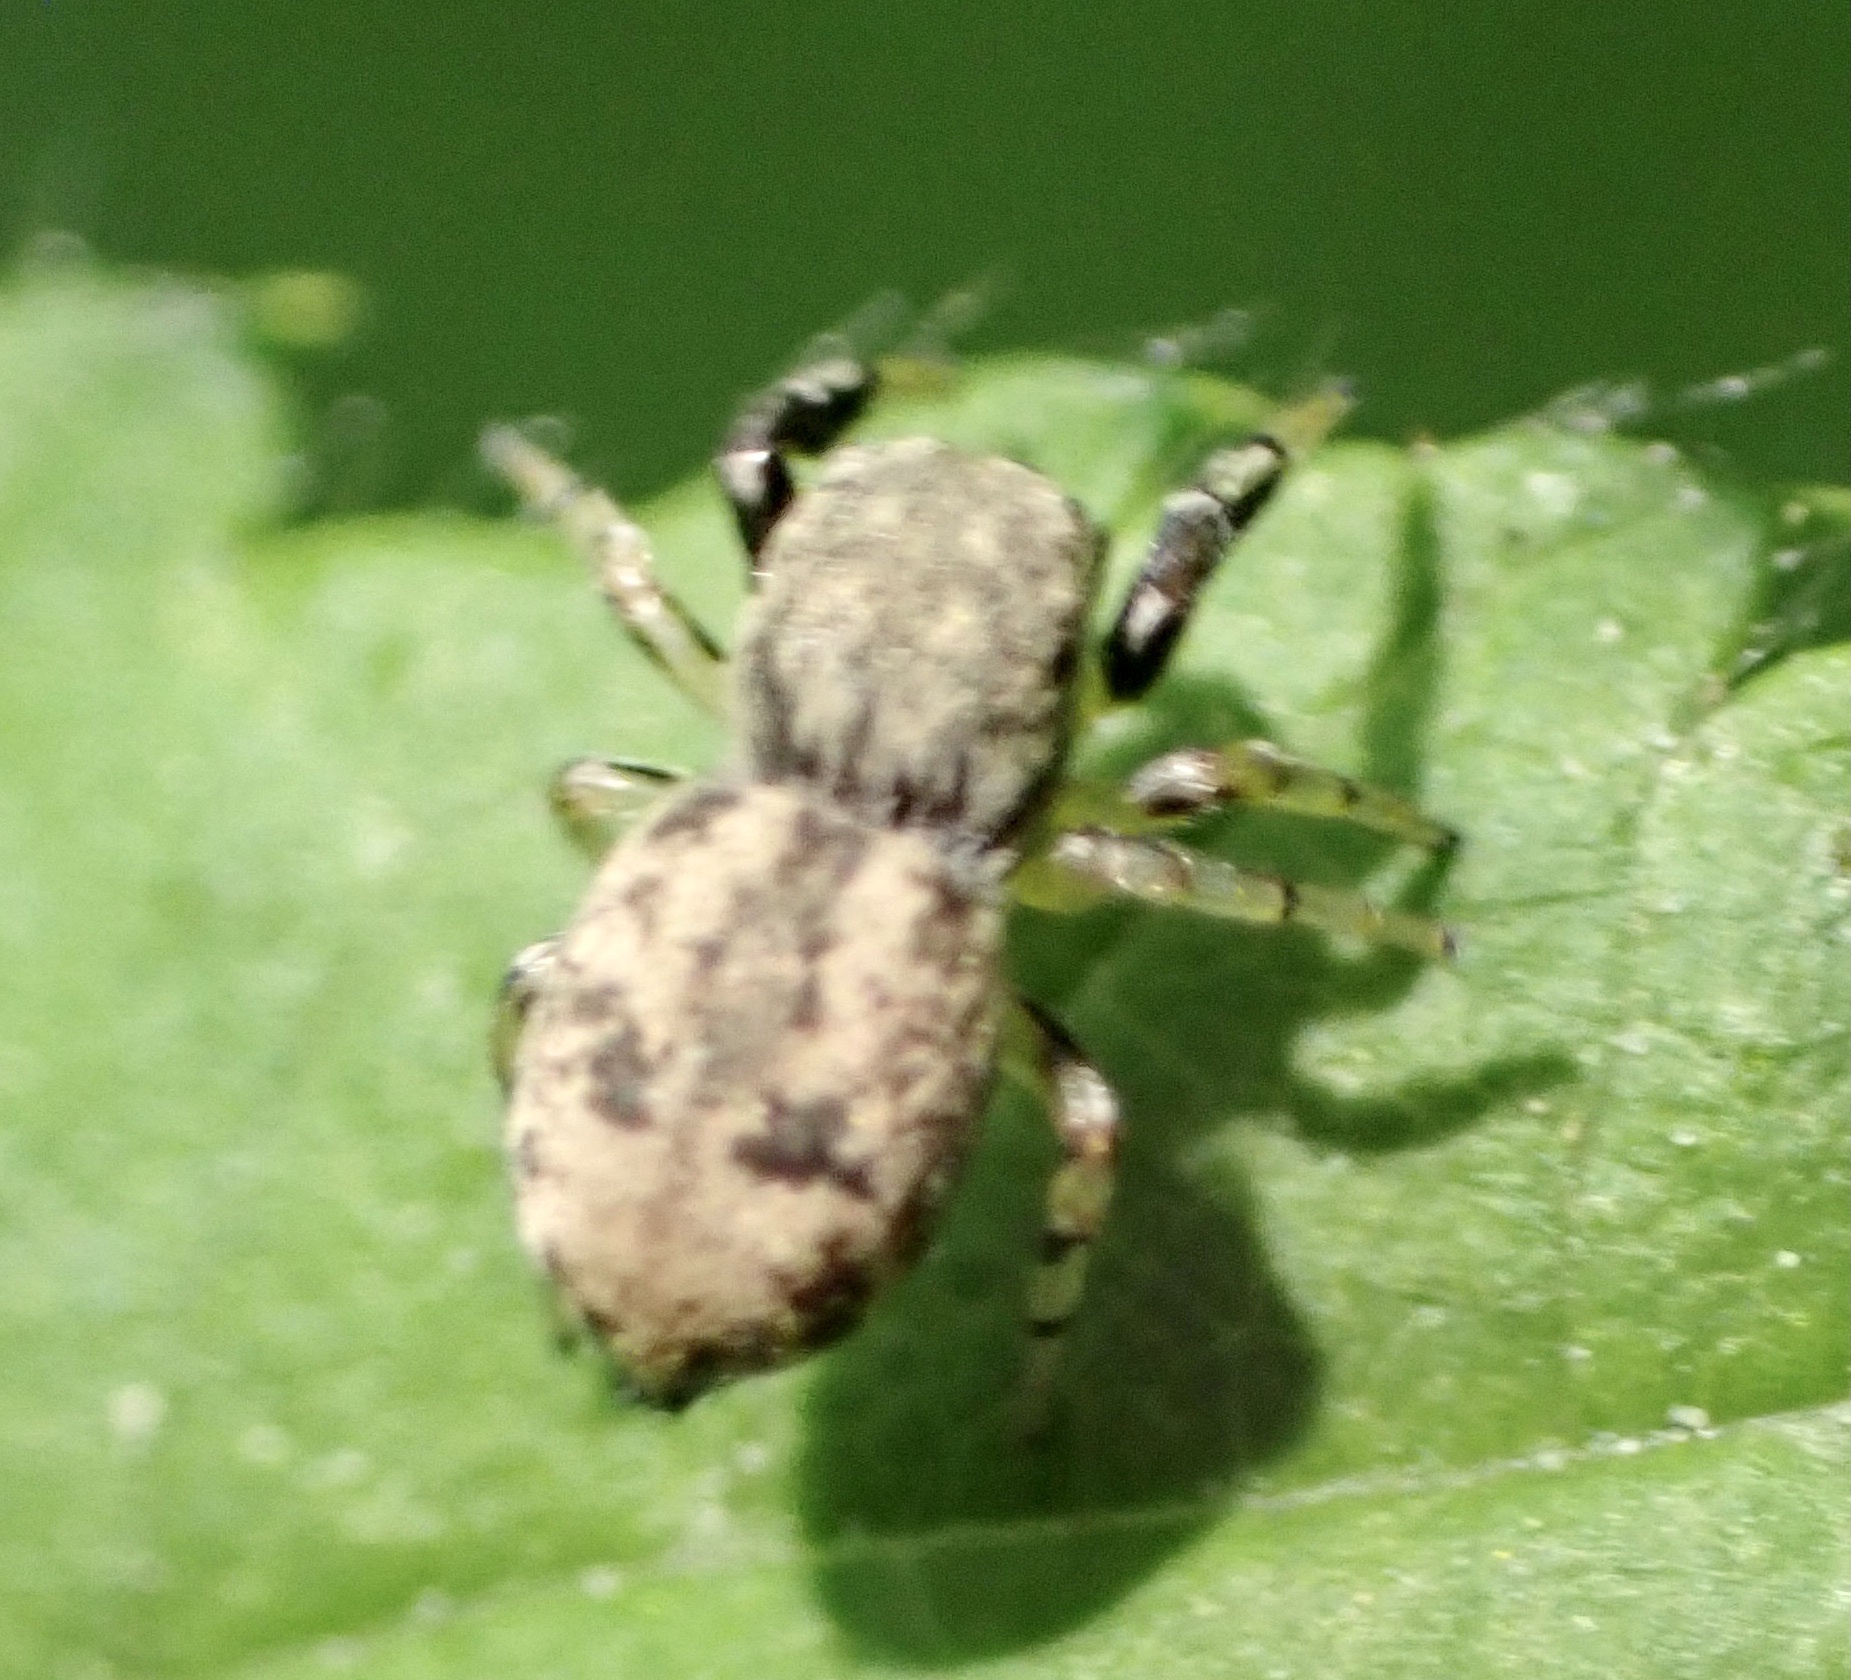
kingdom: Animalia
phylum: Arthropoda
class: Arachnida
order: Araneae
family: Salticidae
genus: Ballus
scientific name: Ballus chalybeius
